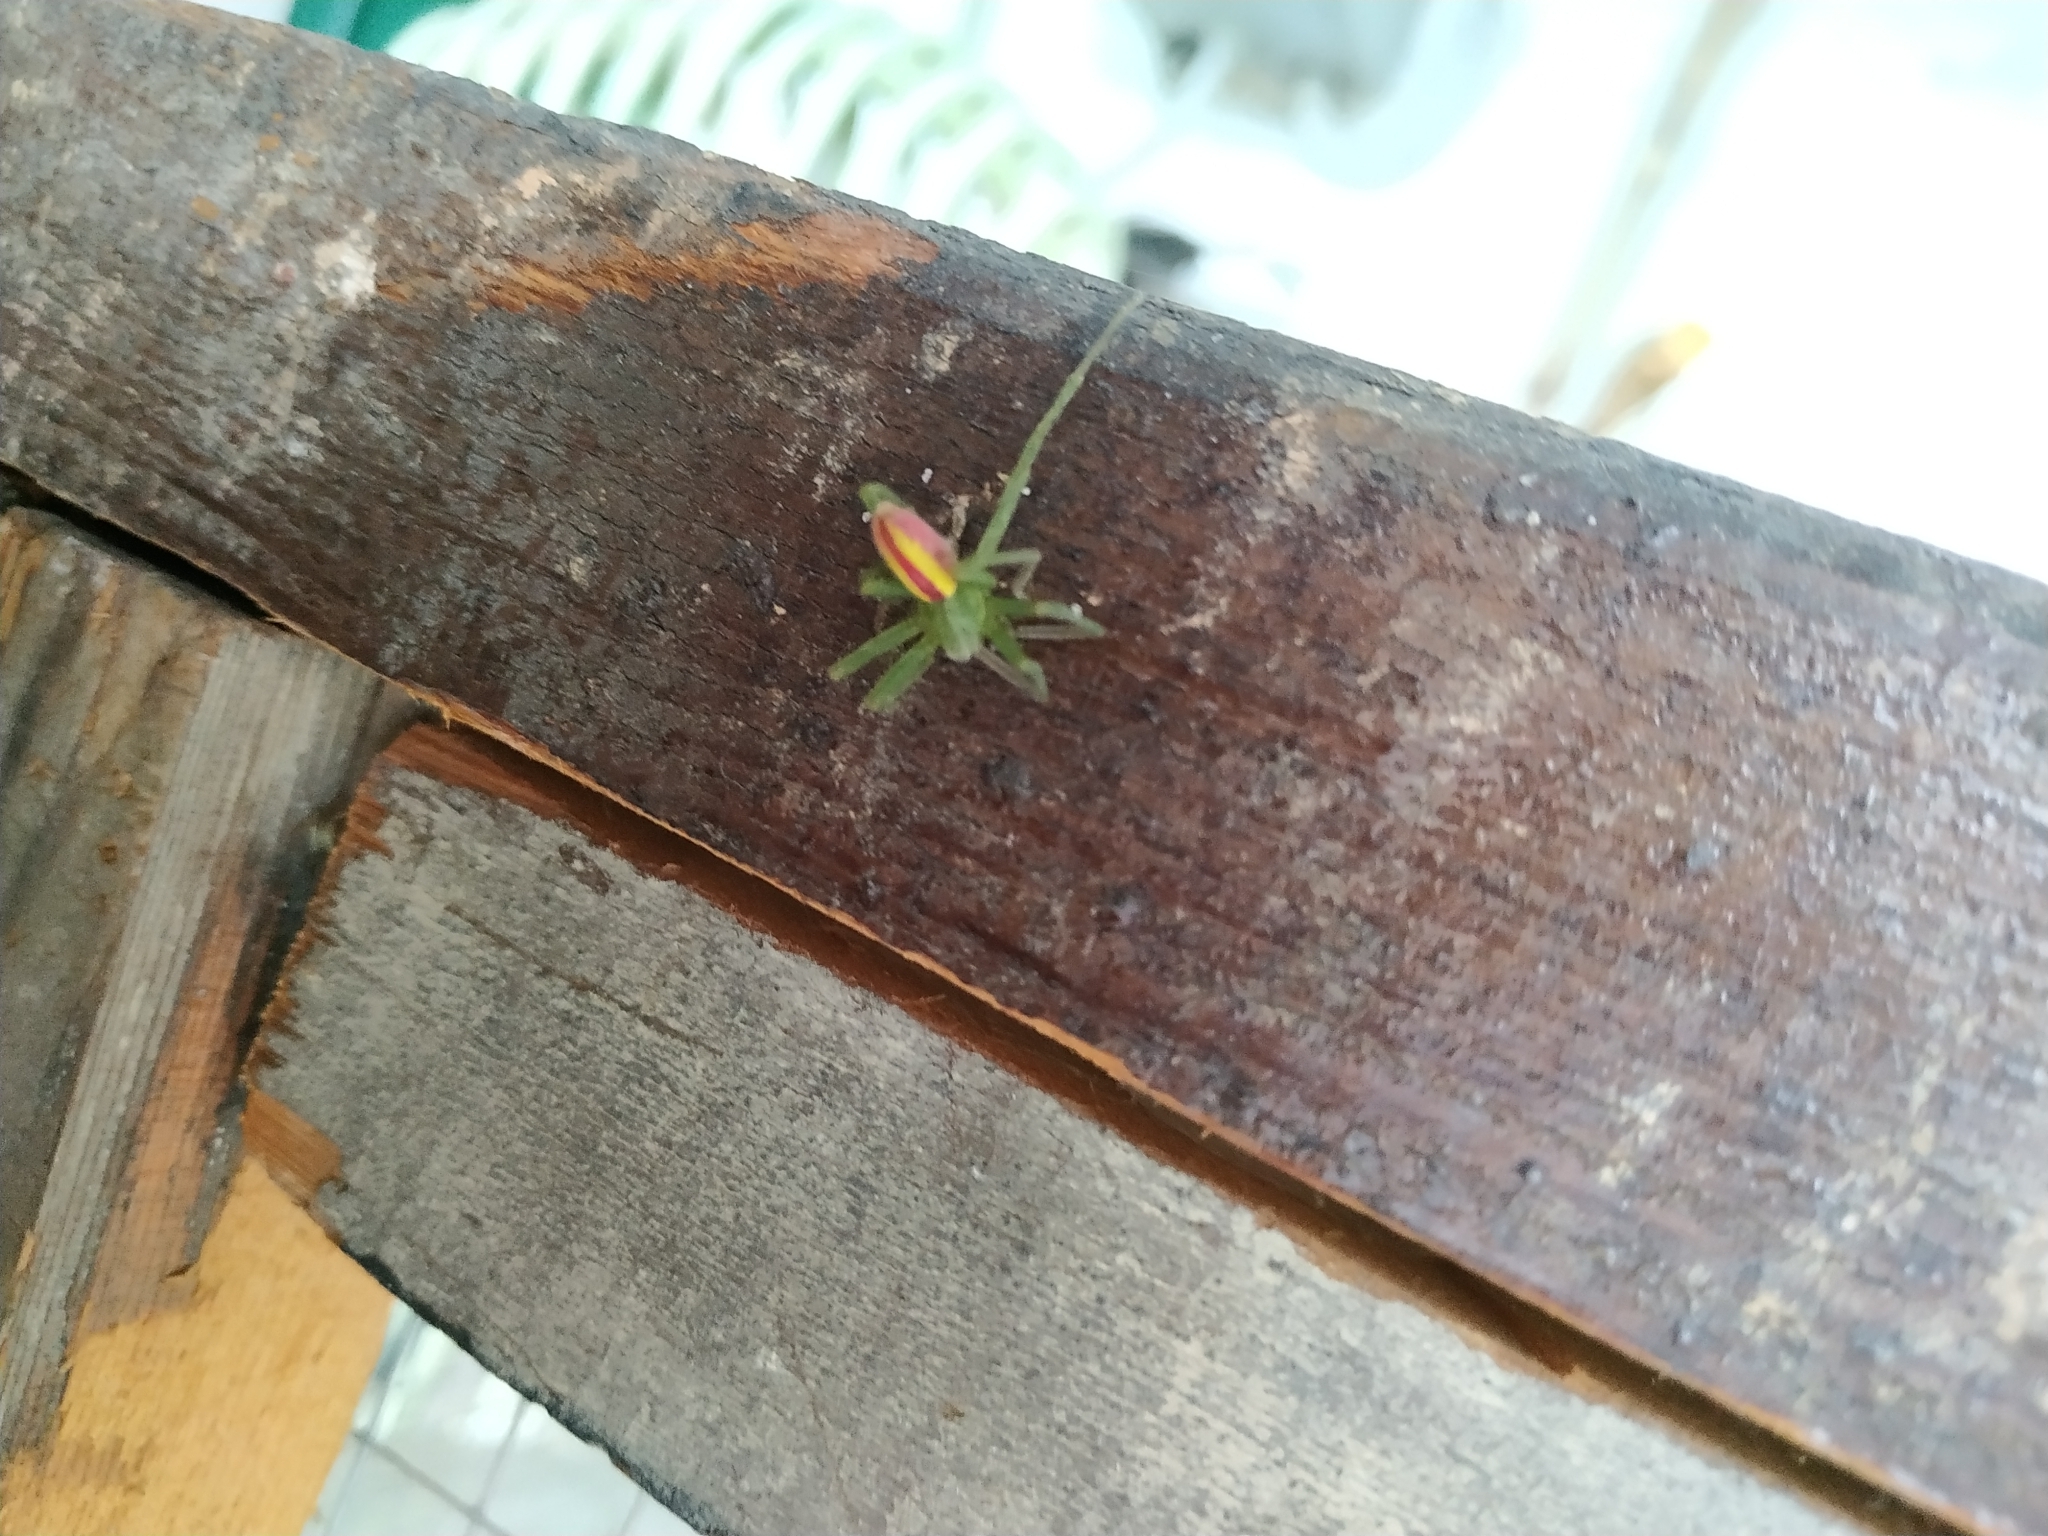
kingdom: Animalia
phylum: Arthropoda
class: Arachnida
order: Araneae
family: Sparassidae
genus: Micrommata
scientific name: Micrommata virescens
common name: Green spider
